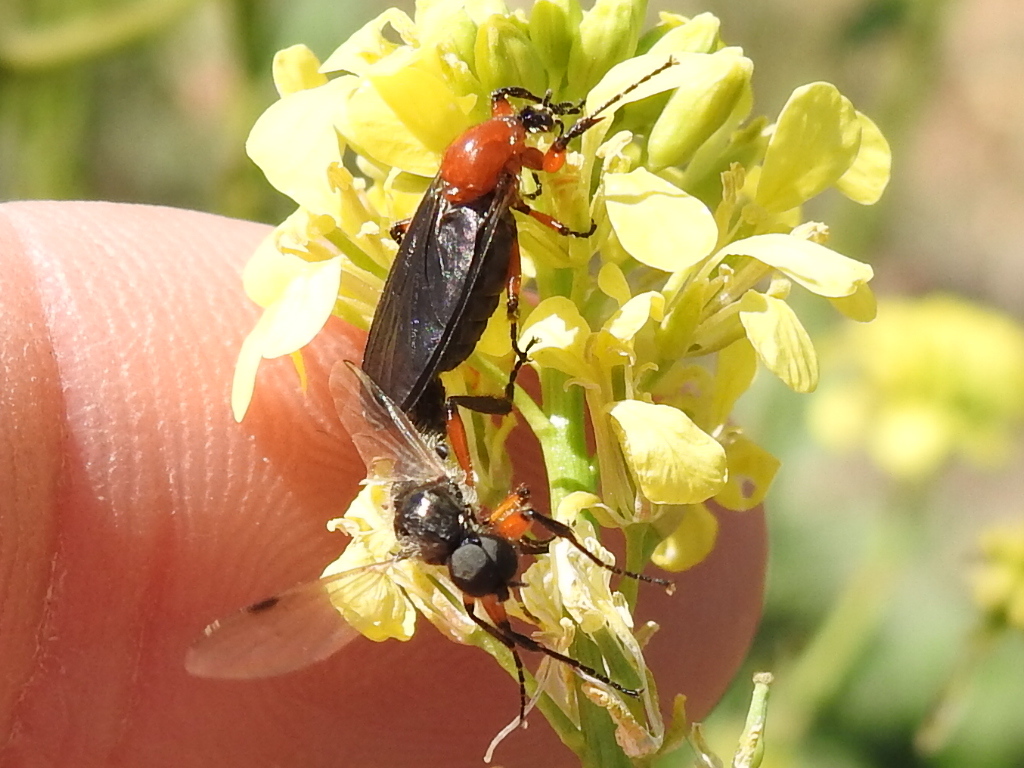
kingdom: Animalia
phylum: Arthropoda
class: Insecta
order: Diptera
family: Bibionidae
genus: Bibio
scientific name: Bibio alienus
